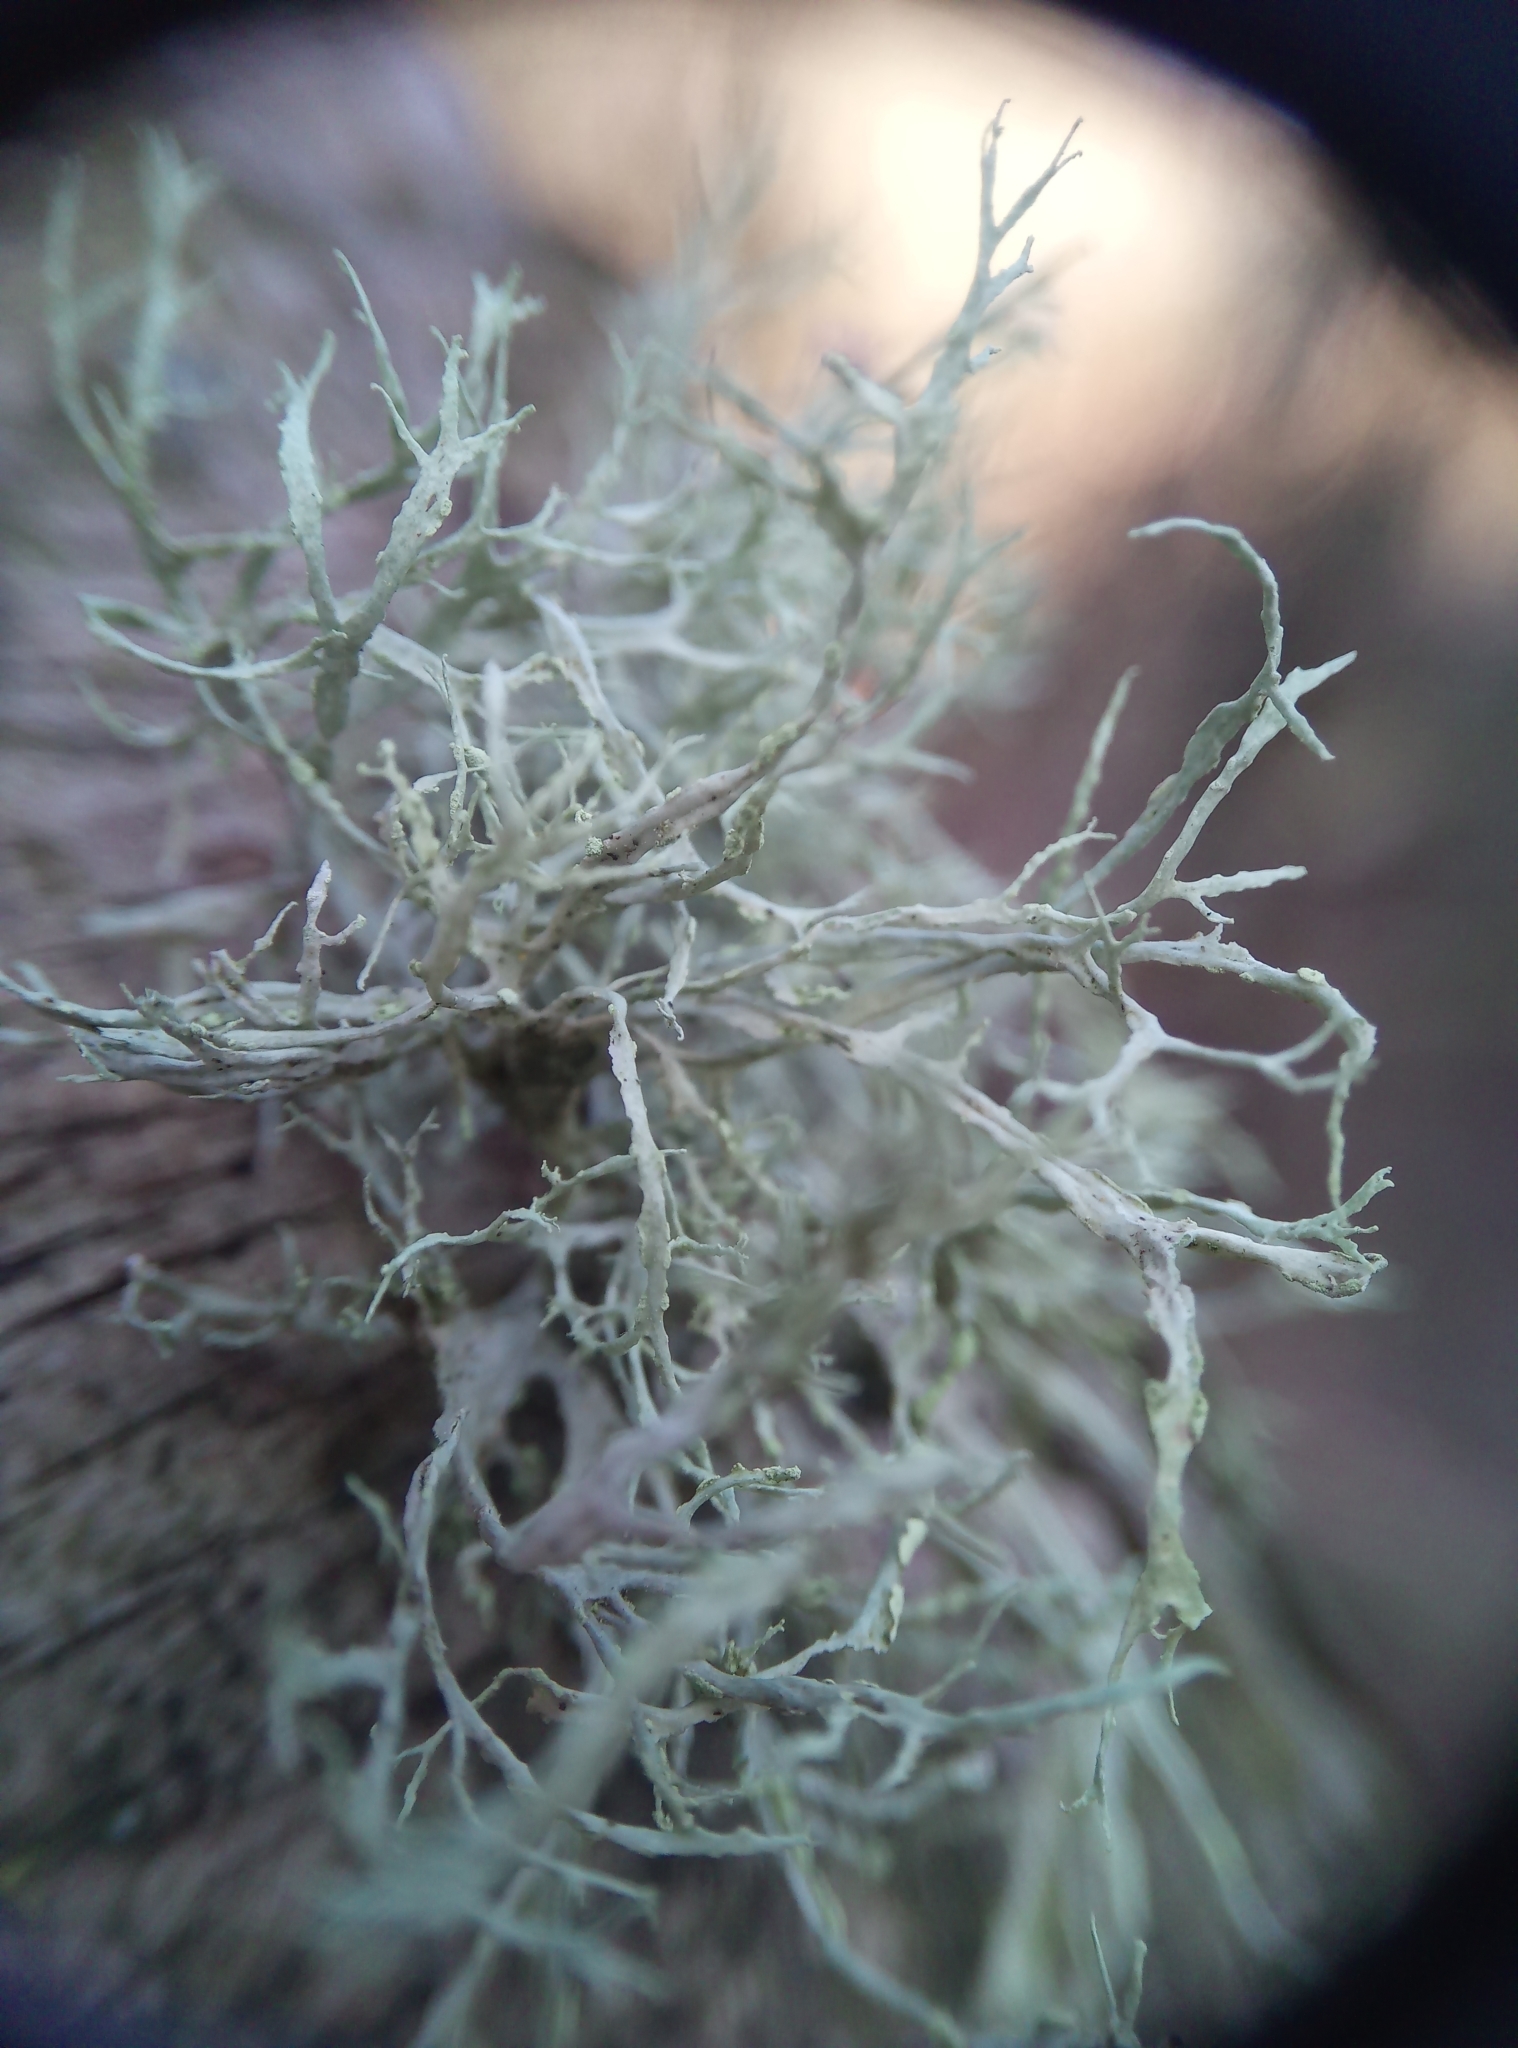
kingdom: Fungi
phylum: Ascomycota
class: Lecanoromycetes
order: Lecanorales
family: Ramalinaceae
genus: Ramalina
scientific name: Ramalina farinacea
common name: Farinose cartilage lichen
